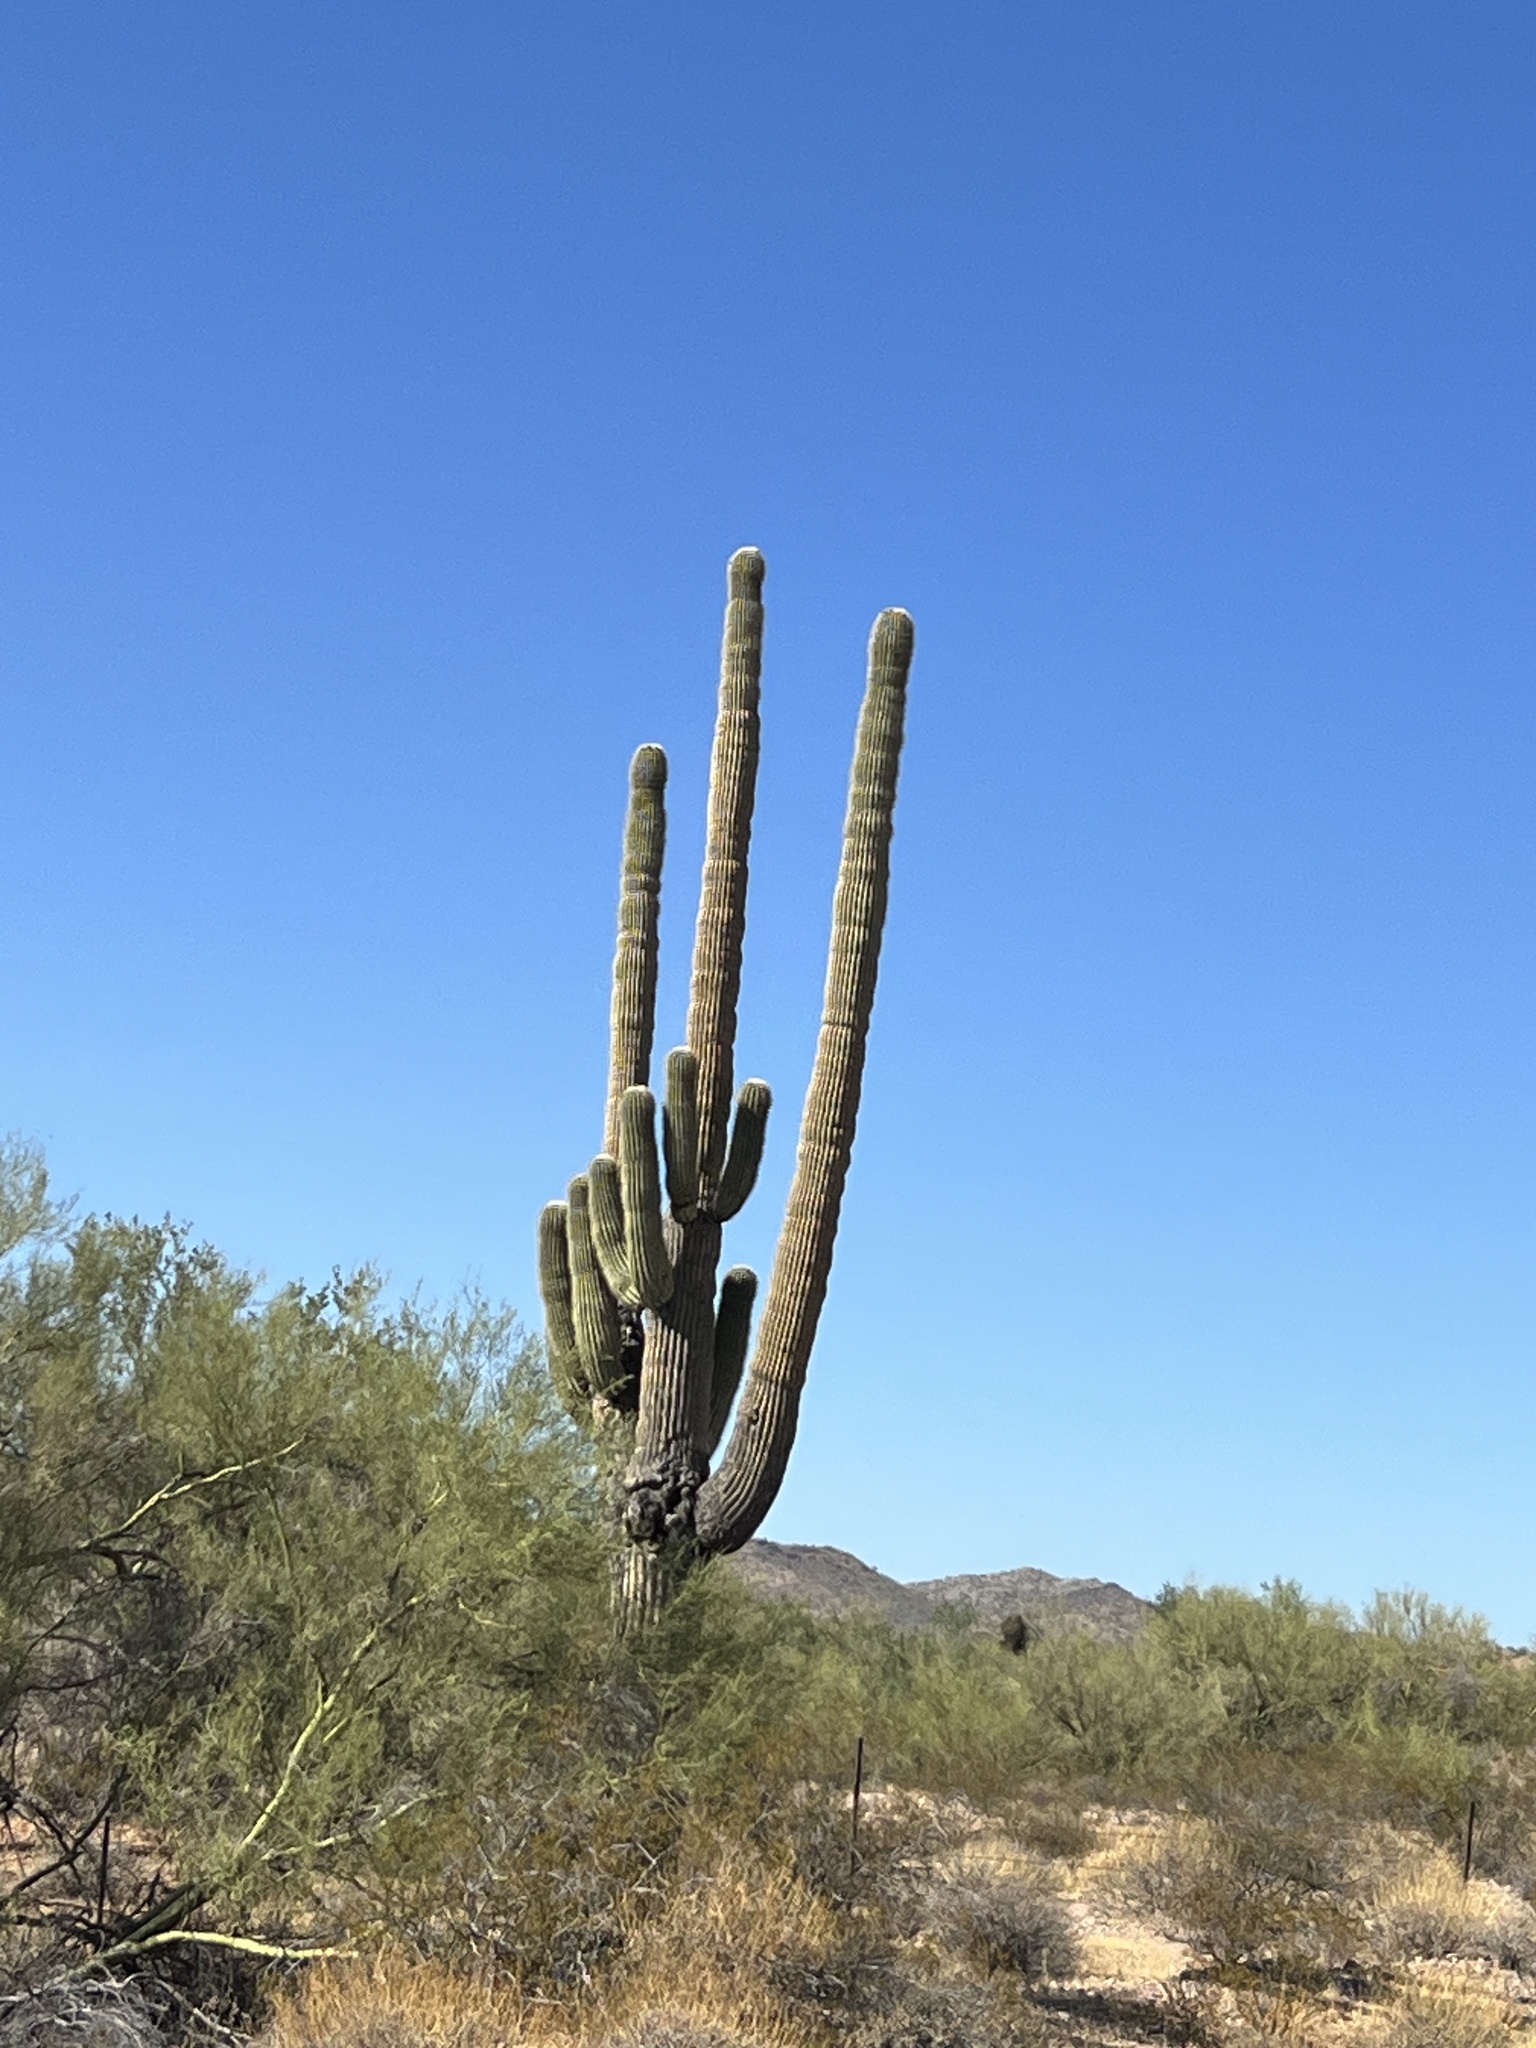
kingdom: Plantae
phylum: Tracheophyta
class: Magnoliopsida
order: Caryophyllales
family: Cactaceae
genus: Carnegiea
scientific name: Carnegiea gigantea
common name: Saguaro
